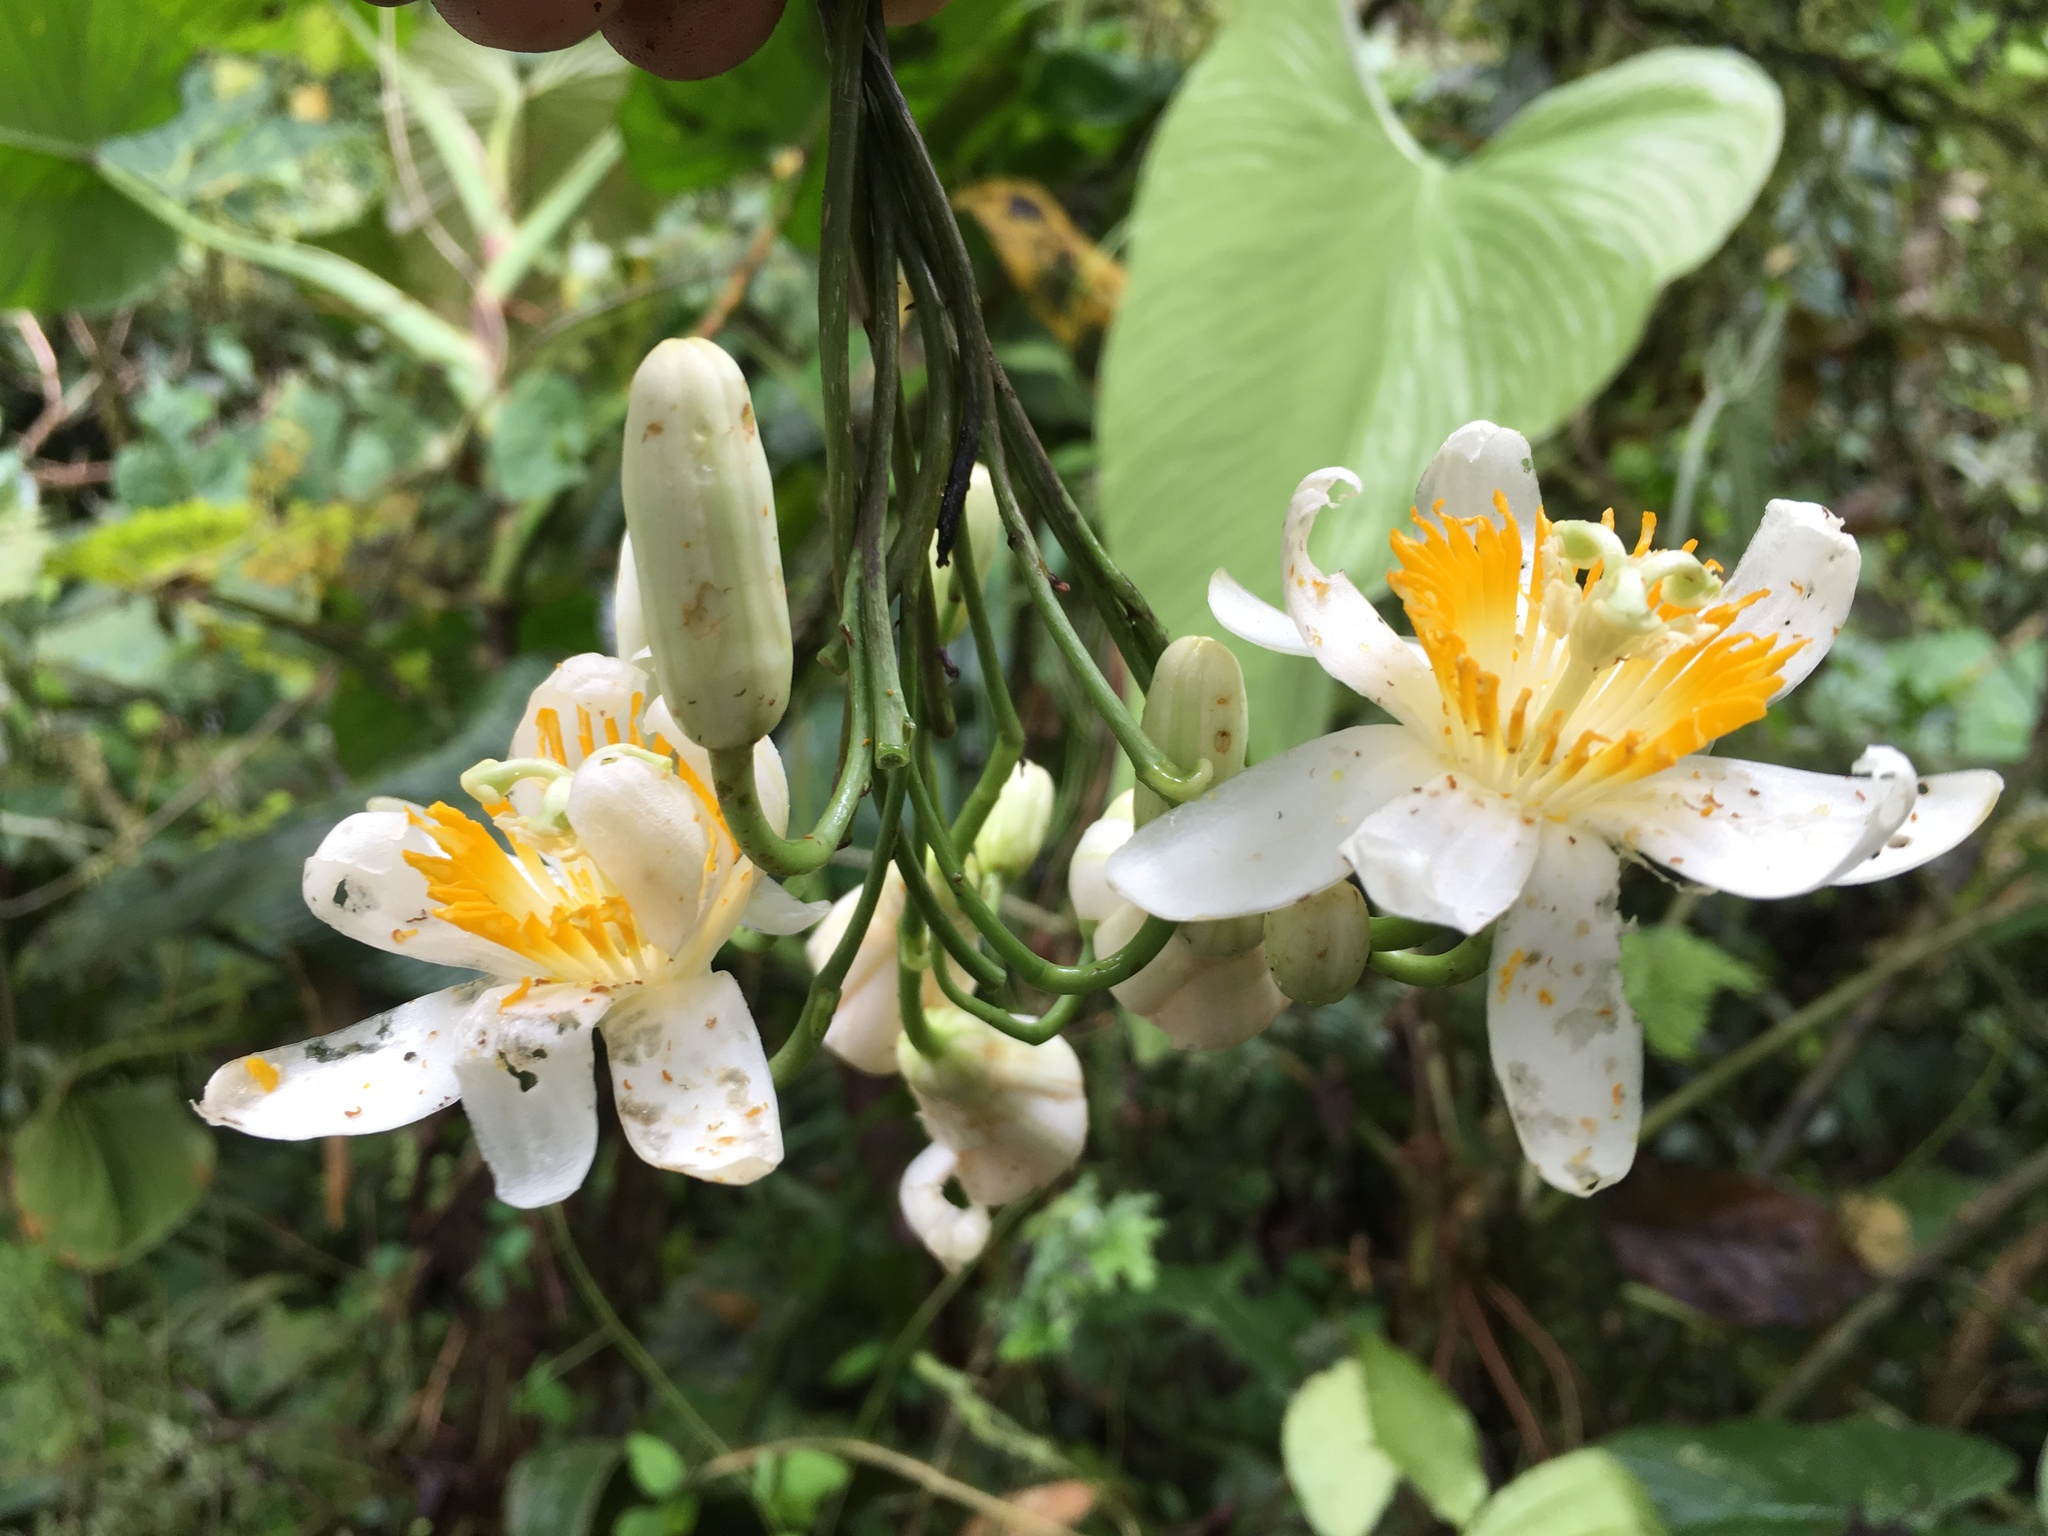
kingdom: Plantae
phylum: Tracheophyta
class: Magnoliopsida
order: Malpighiales
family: Passifloraceae
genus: Passiflora
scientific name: Passiflora magnoliifolia
